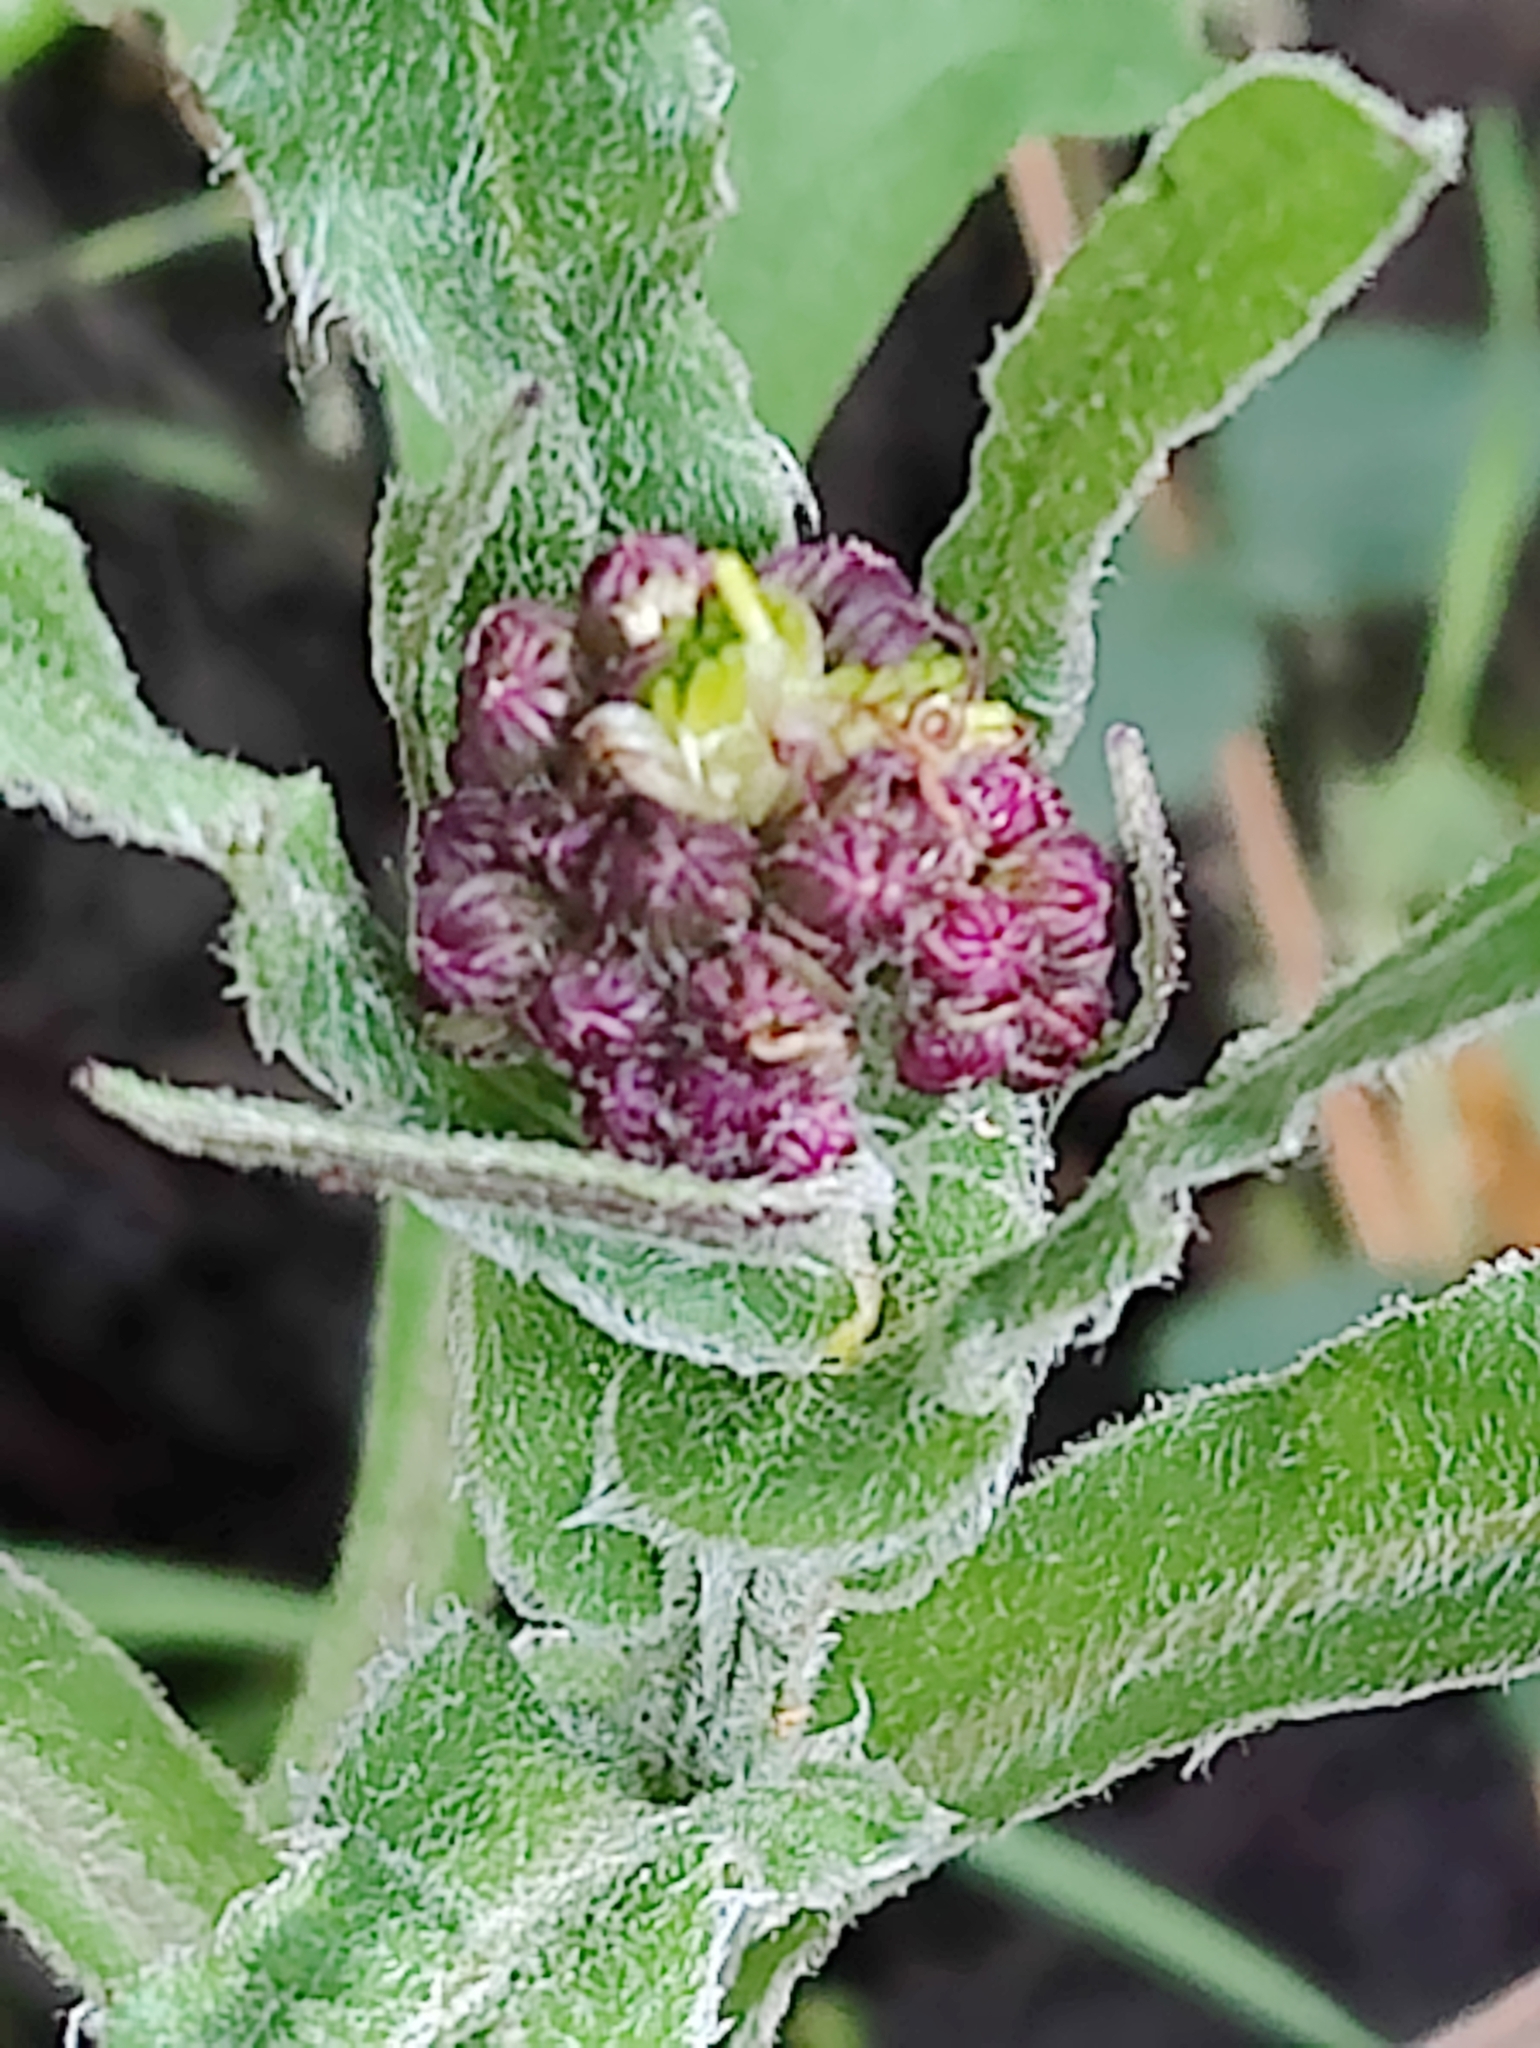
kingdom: Plantae
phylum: Tracheophyta
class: Magnoliopsida
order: Asterales
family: Asteraceae
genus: Senecio
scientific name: Senecio aronicoides
